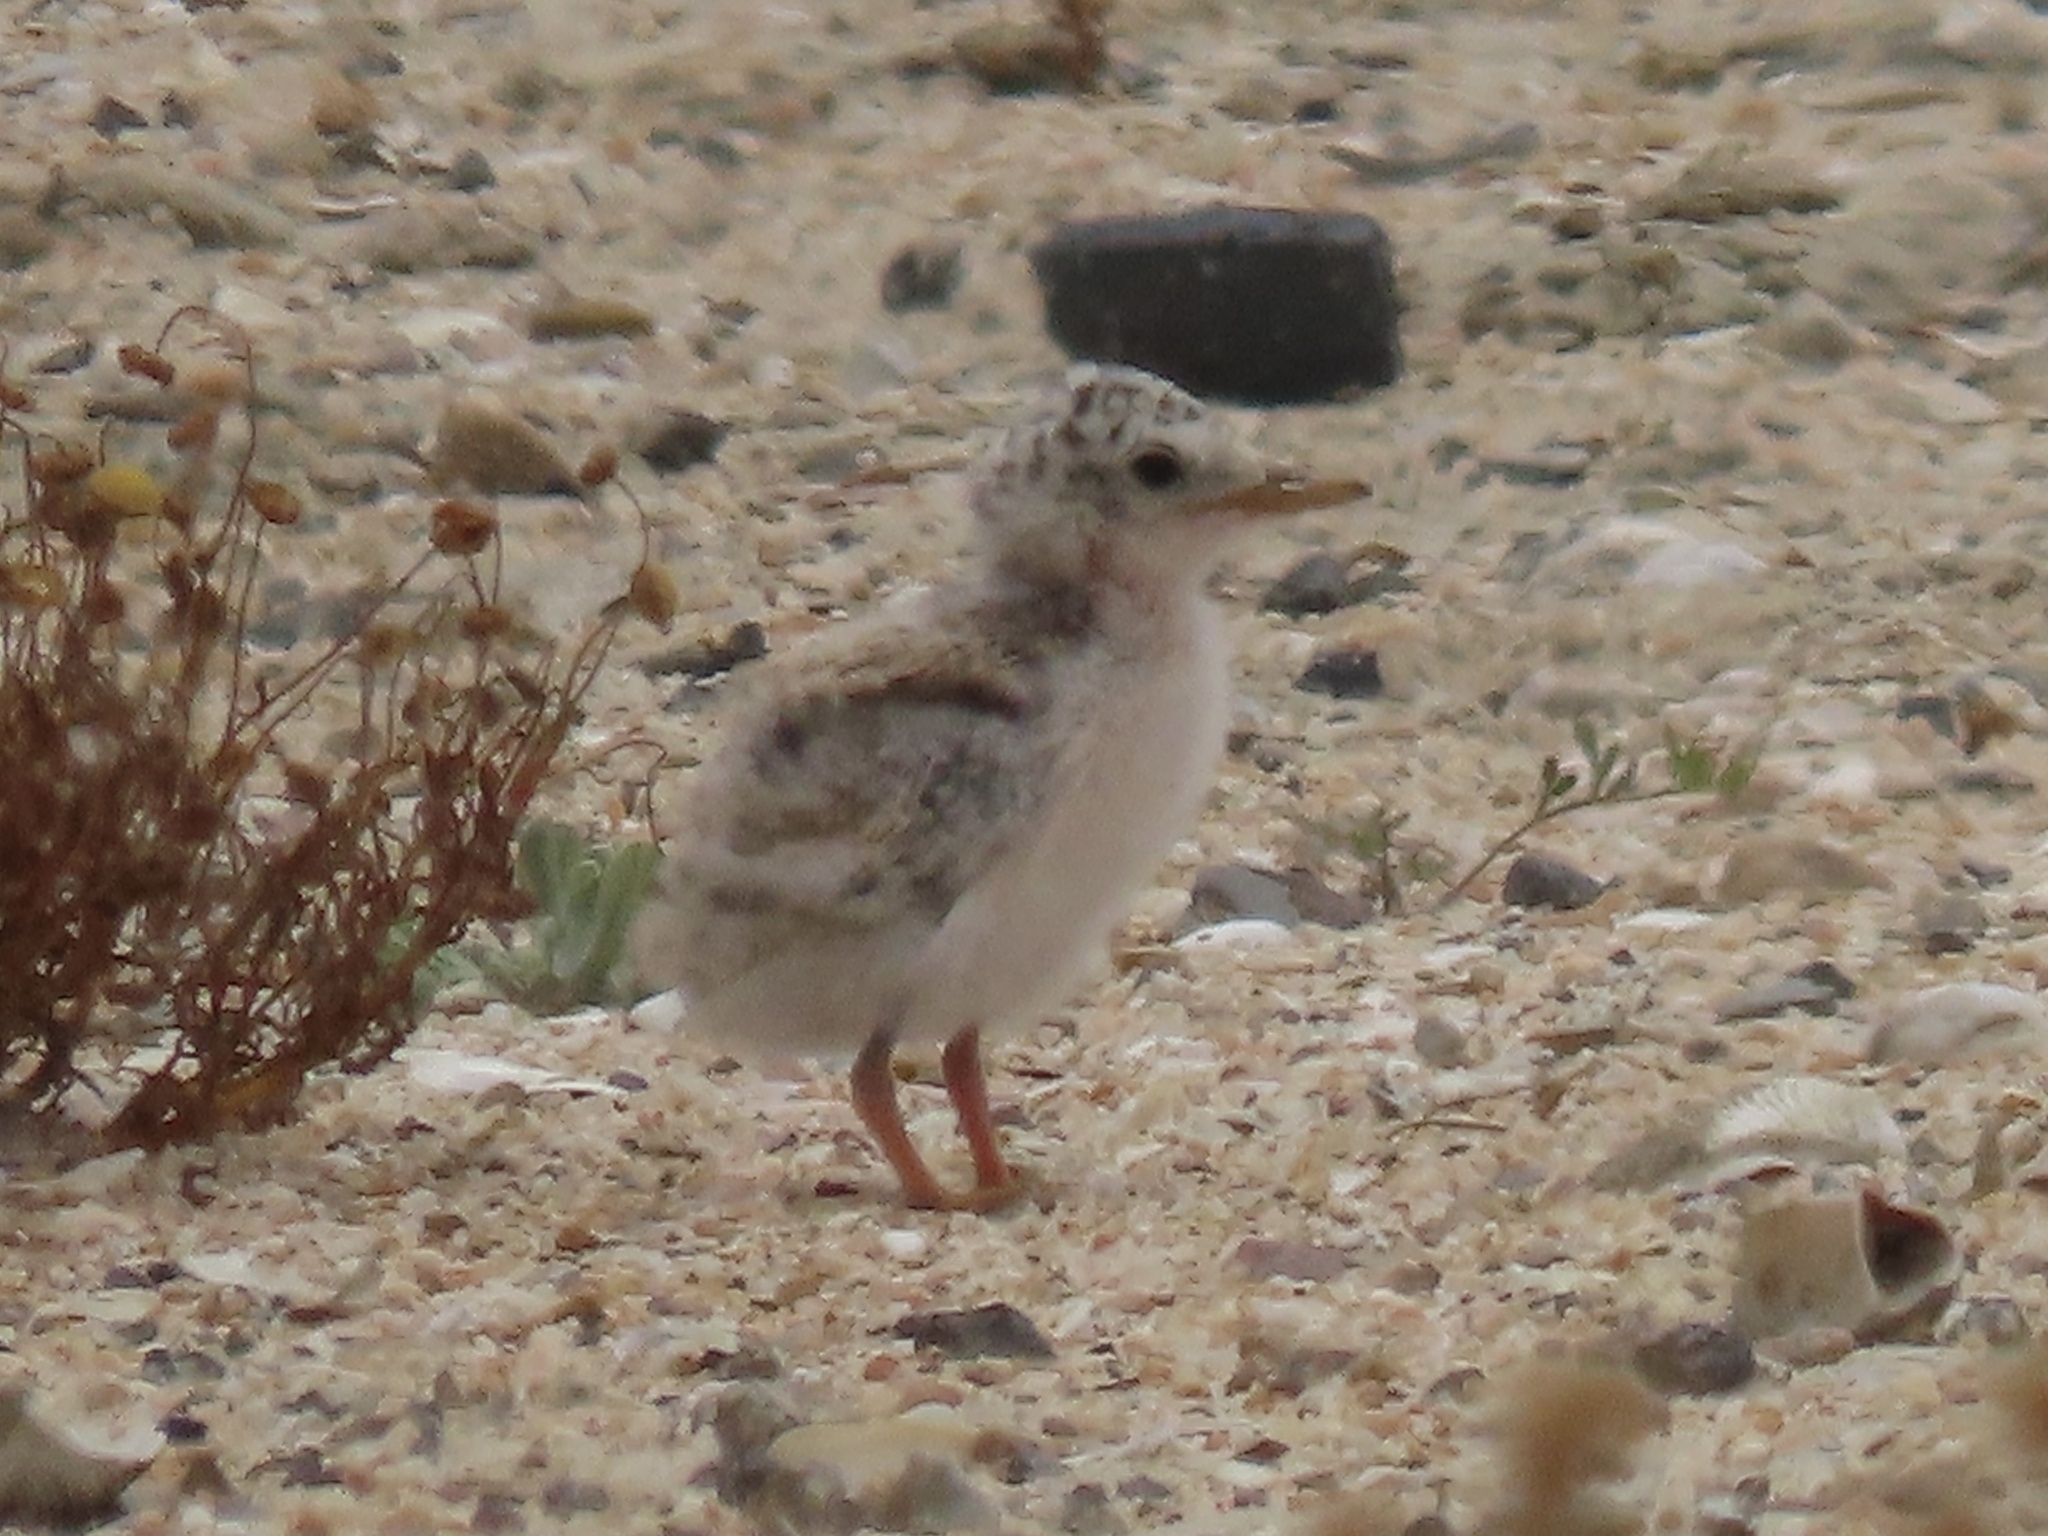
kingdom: Animalia
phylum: Chordata
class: Aves
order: Charadriiformes
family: Laridae
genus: Sternula
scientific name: Sternula antillarum
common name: Least tern
